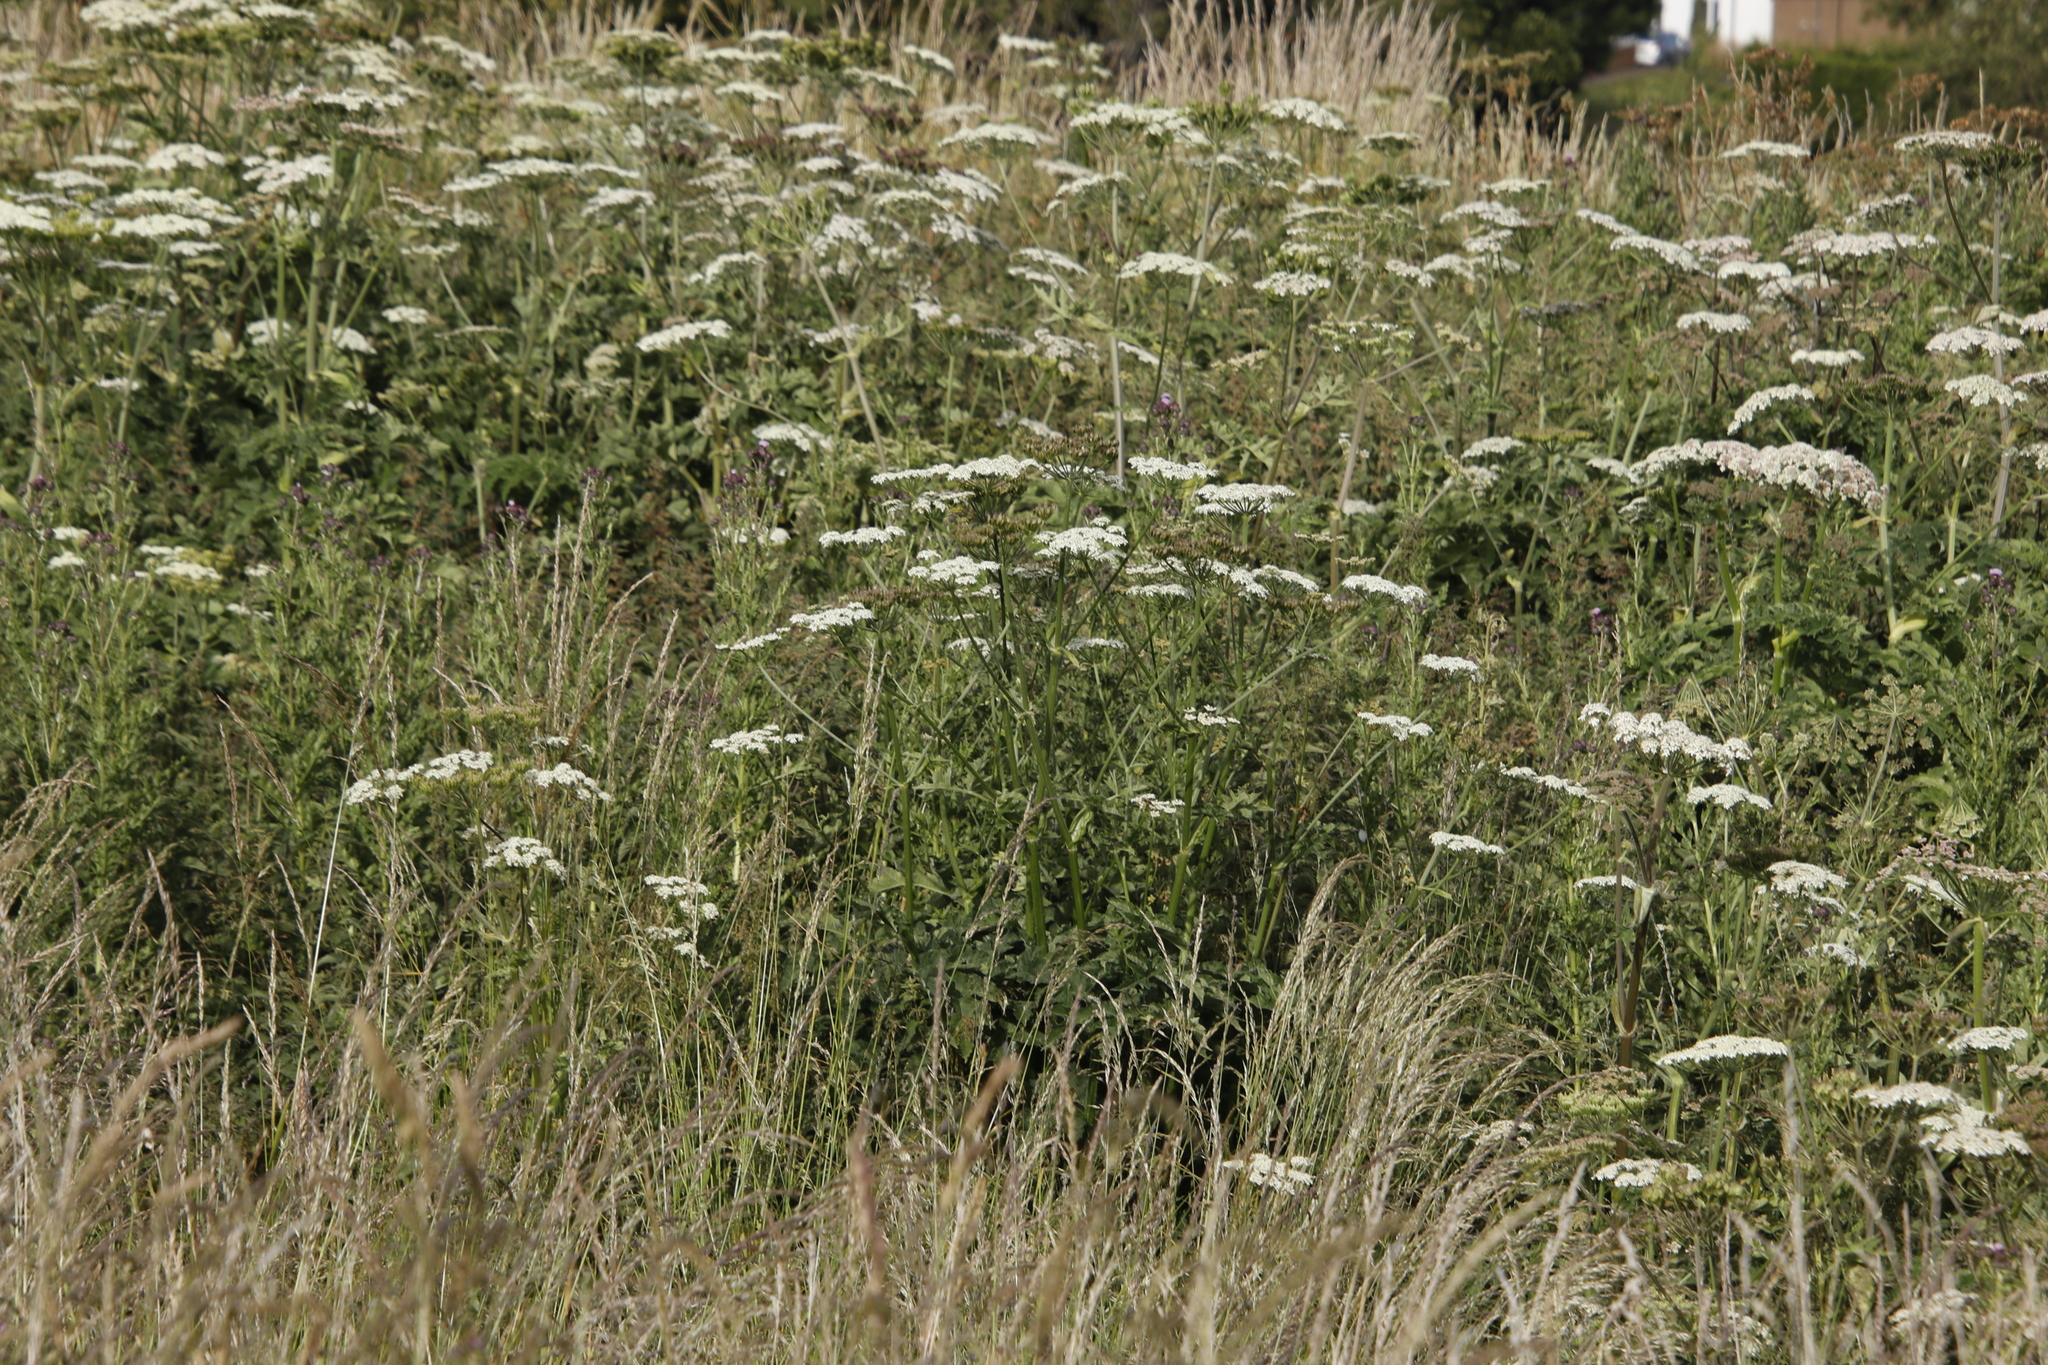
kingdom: Plantae
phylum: Tracheophyta
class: Magnoliopsida
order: Apiales
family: Apiaceae
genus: Heracleum
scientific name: Heracleum sphondylium
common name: Hogweed
